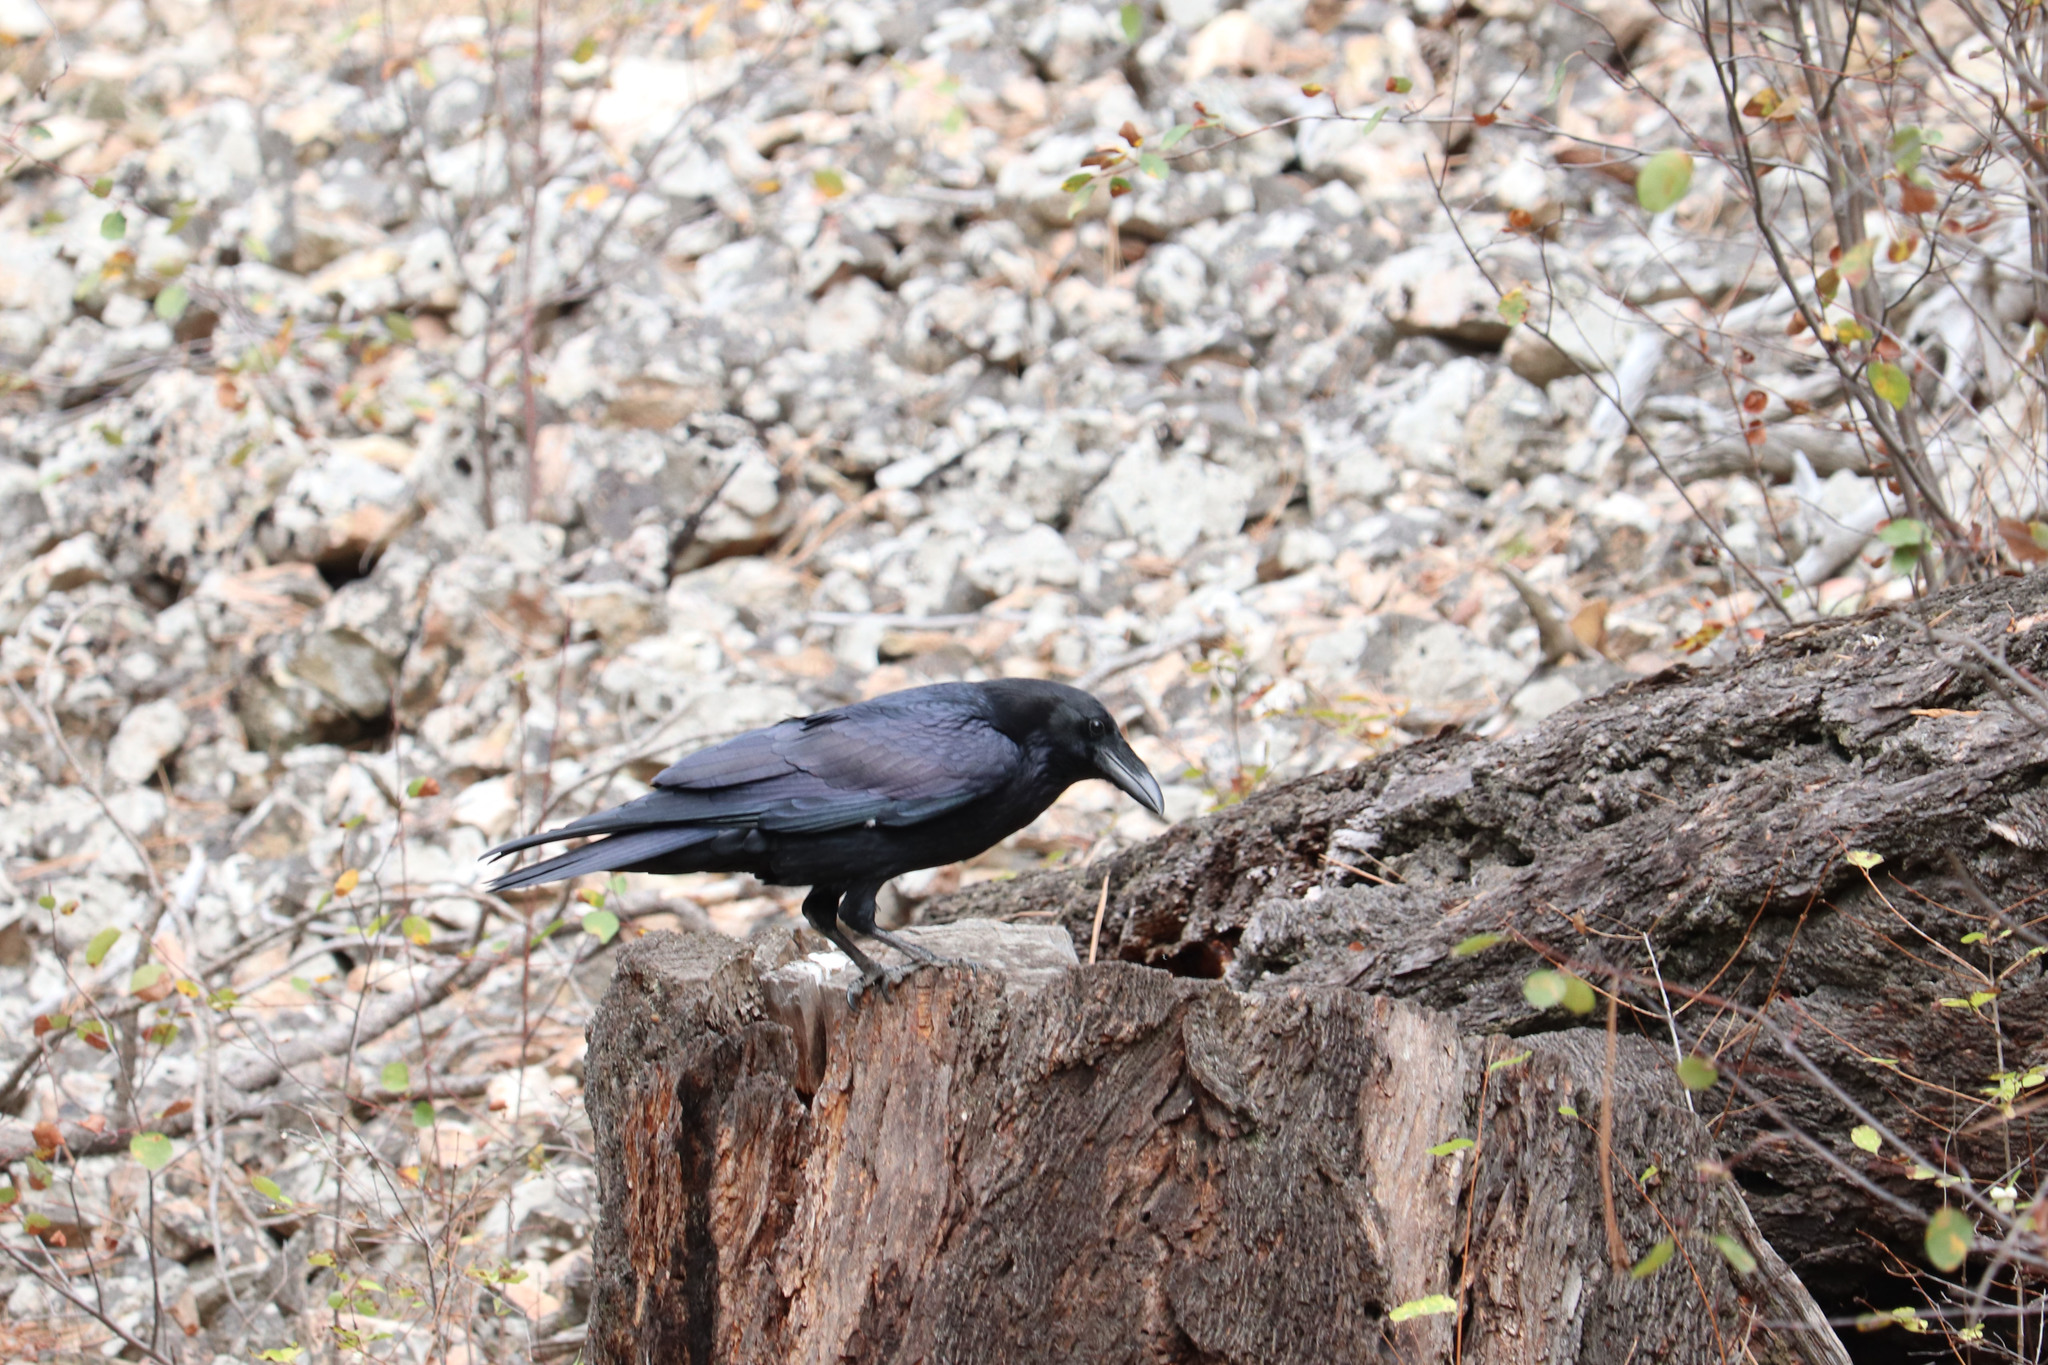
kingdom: Animalia
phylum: Chordata
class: Aves
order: Passeriformes
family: Corvidae
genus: Corvus
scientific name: Corvus brachyrhynchos
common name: American crow
